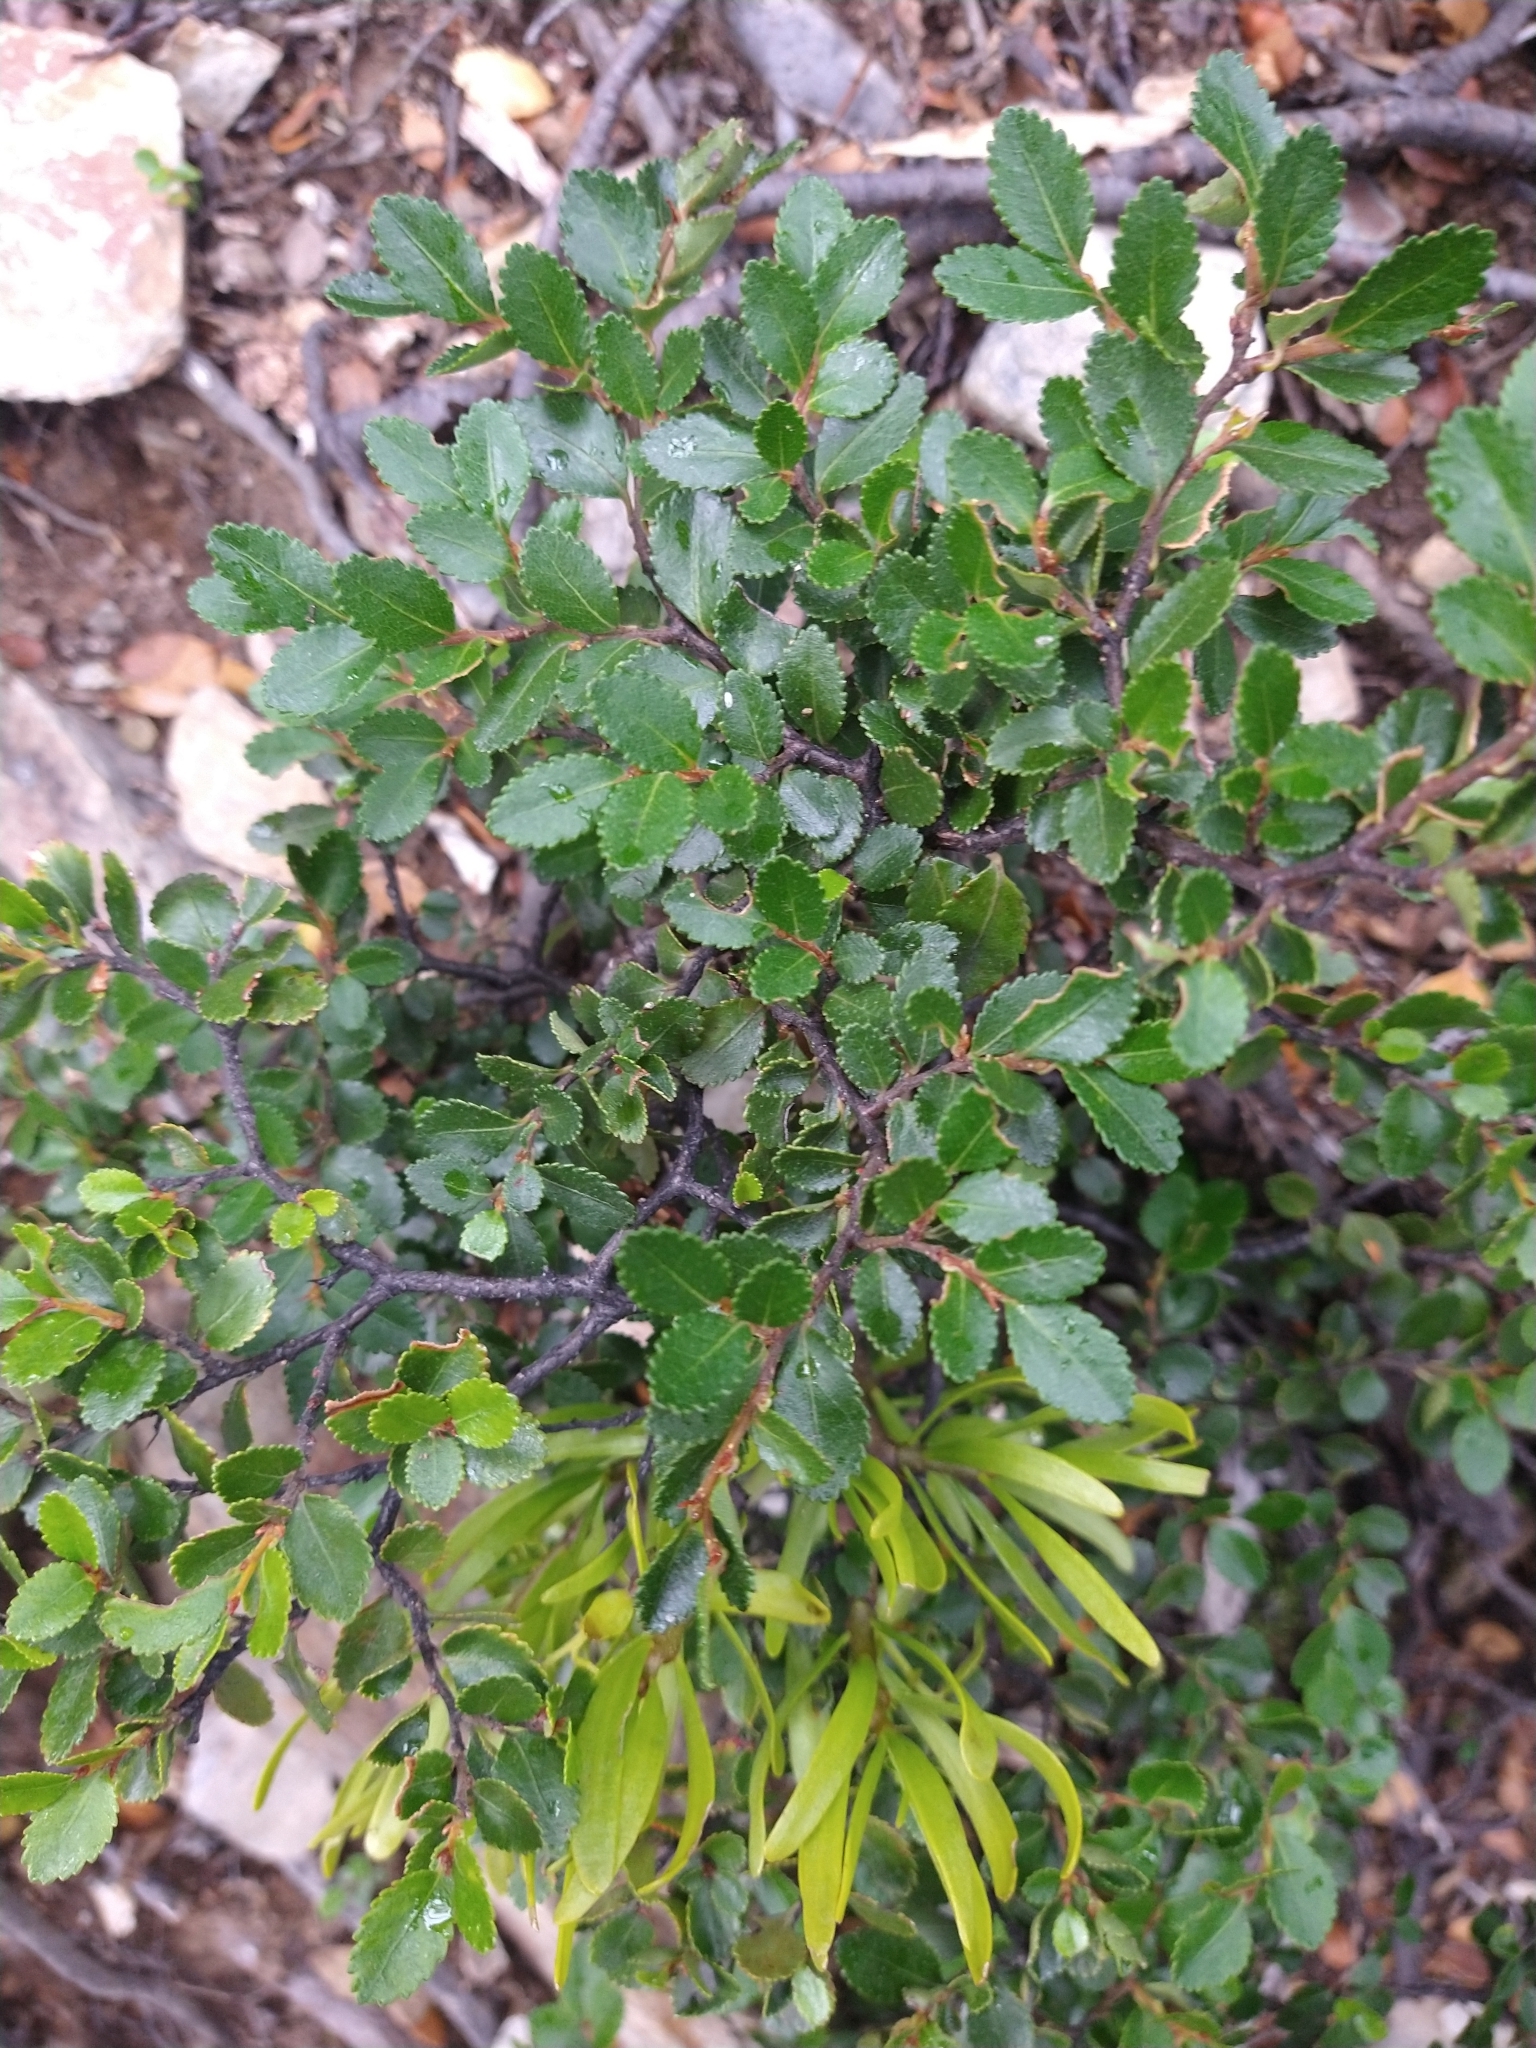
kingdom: Plantae
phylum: Tracheophyta
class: Magnoliopsida
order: Santalales
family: Misodendraceae
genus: Misodendrum
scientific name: Misodendrum brachystachyum
